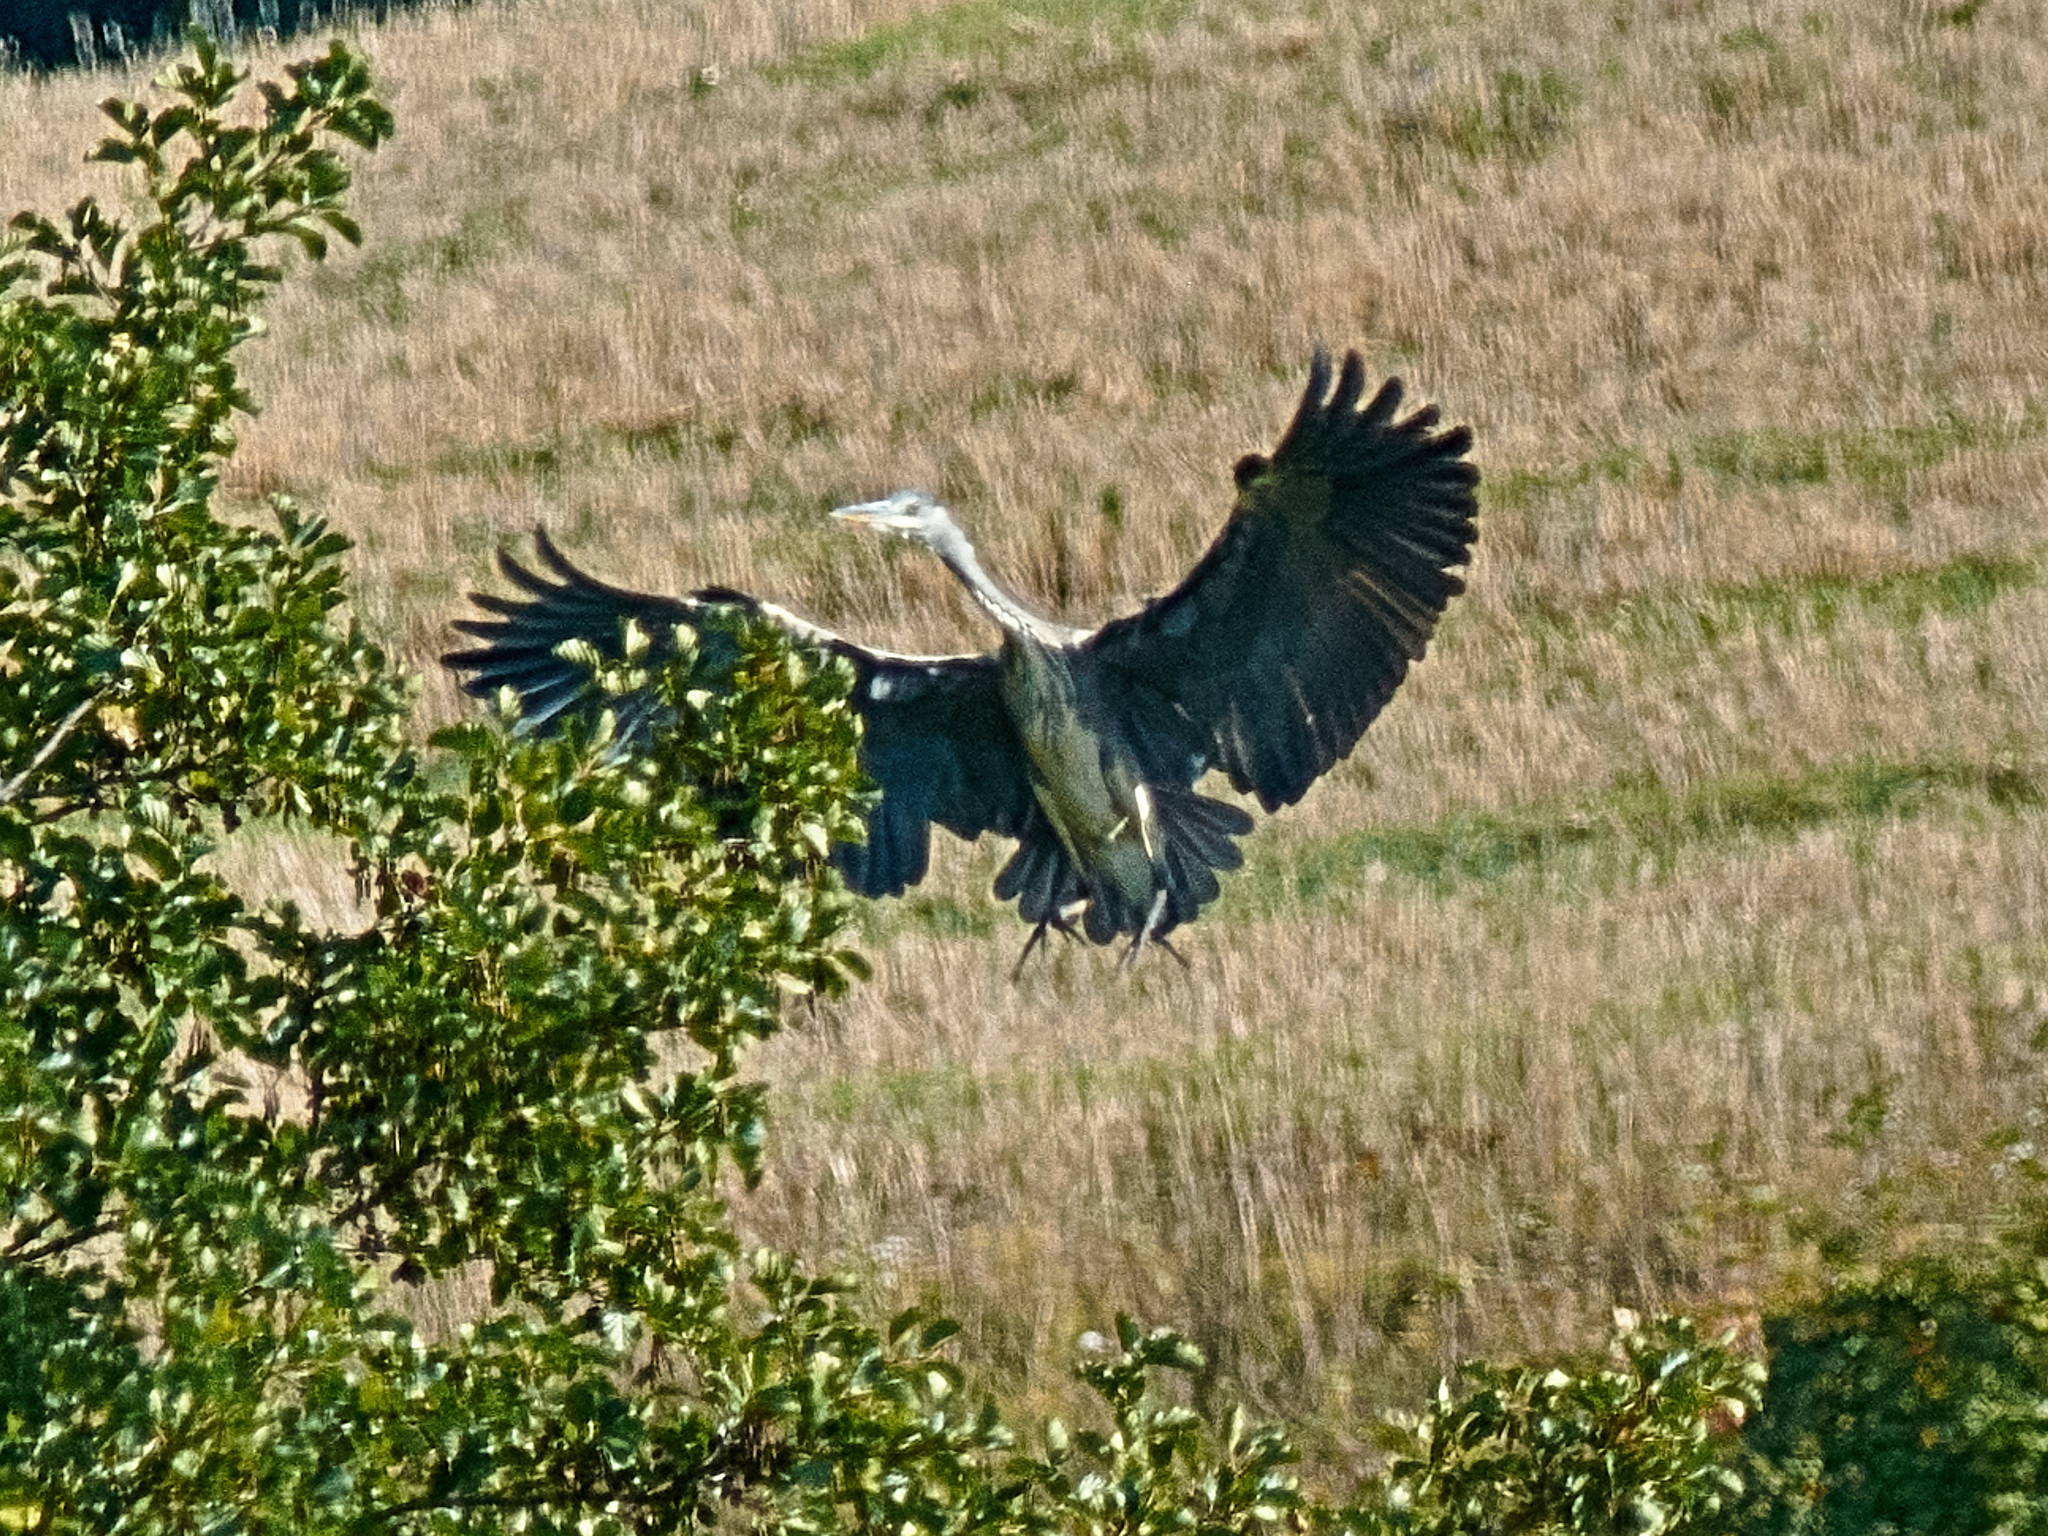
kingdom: Animalia
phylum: Chordata
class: Aves
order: Pelecaniformes
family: Ardeidae
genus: Ardea
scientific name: Ardea cinerea
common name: Grey heron
